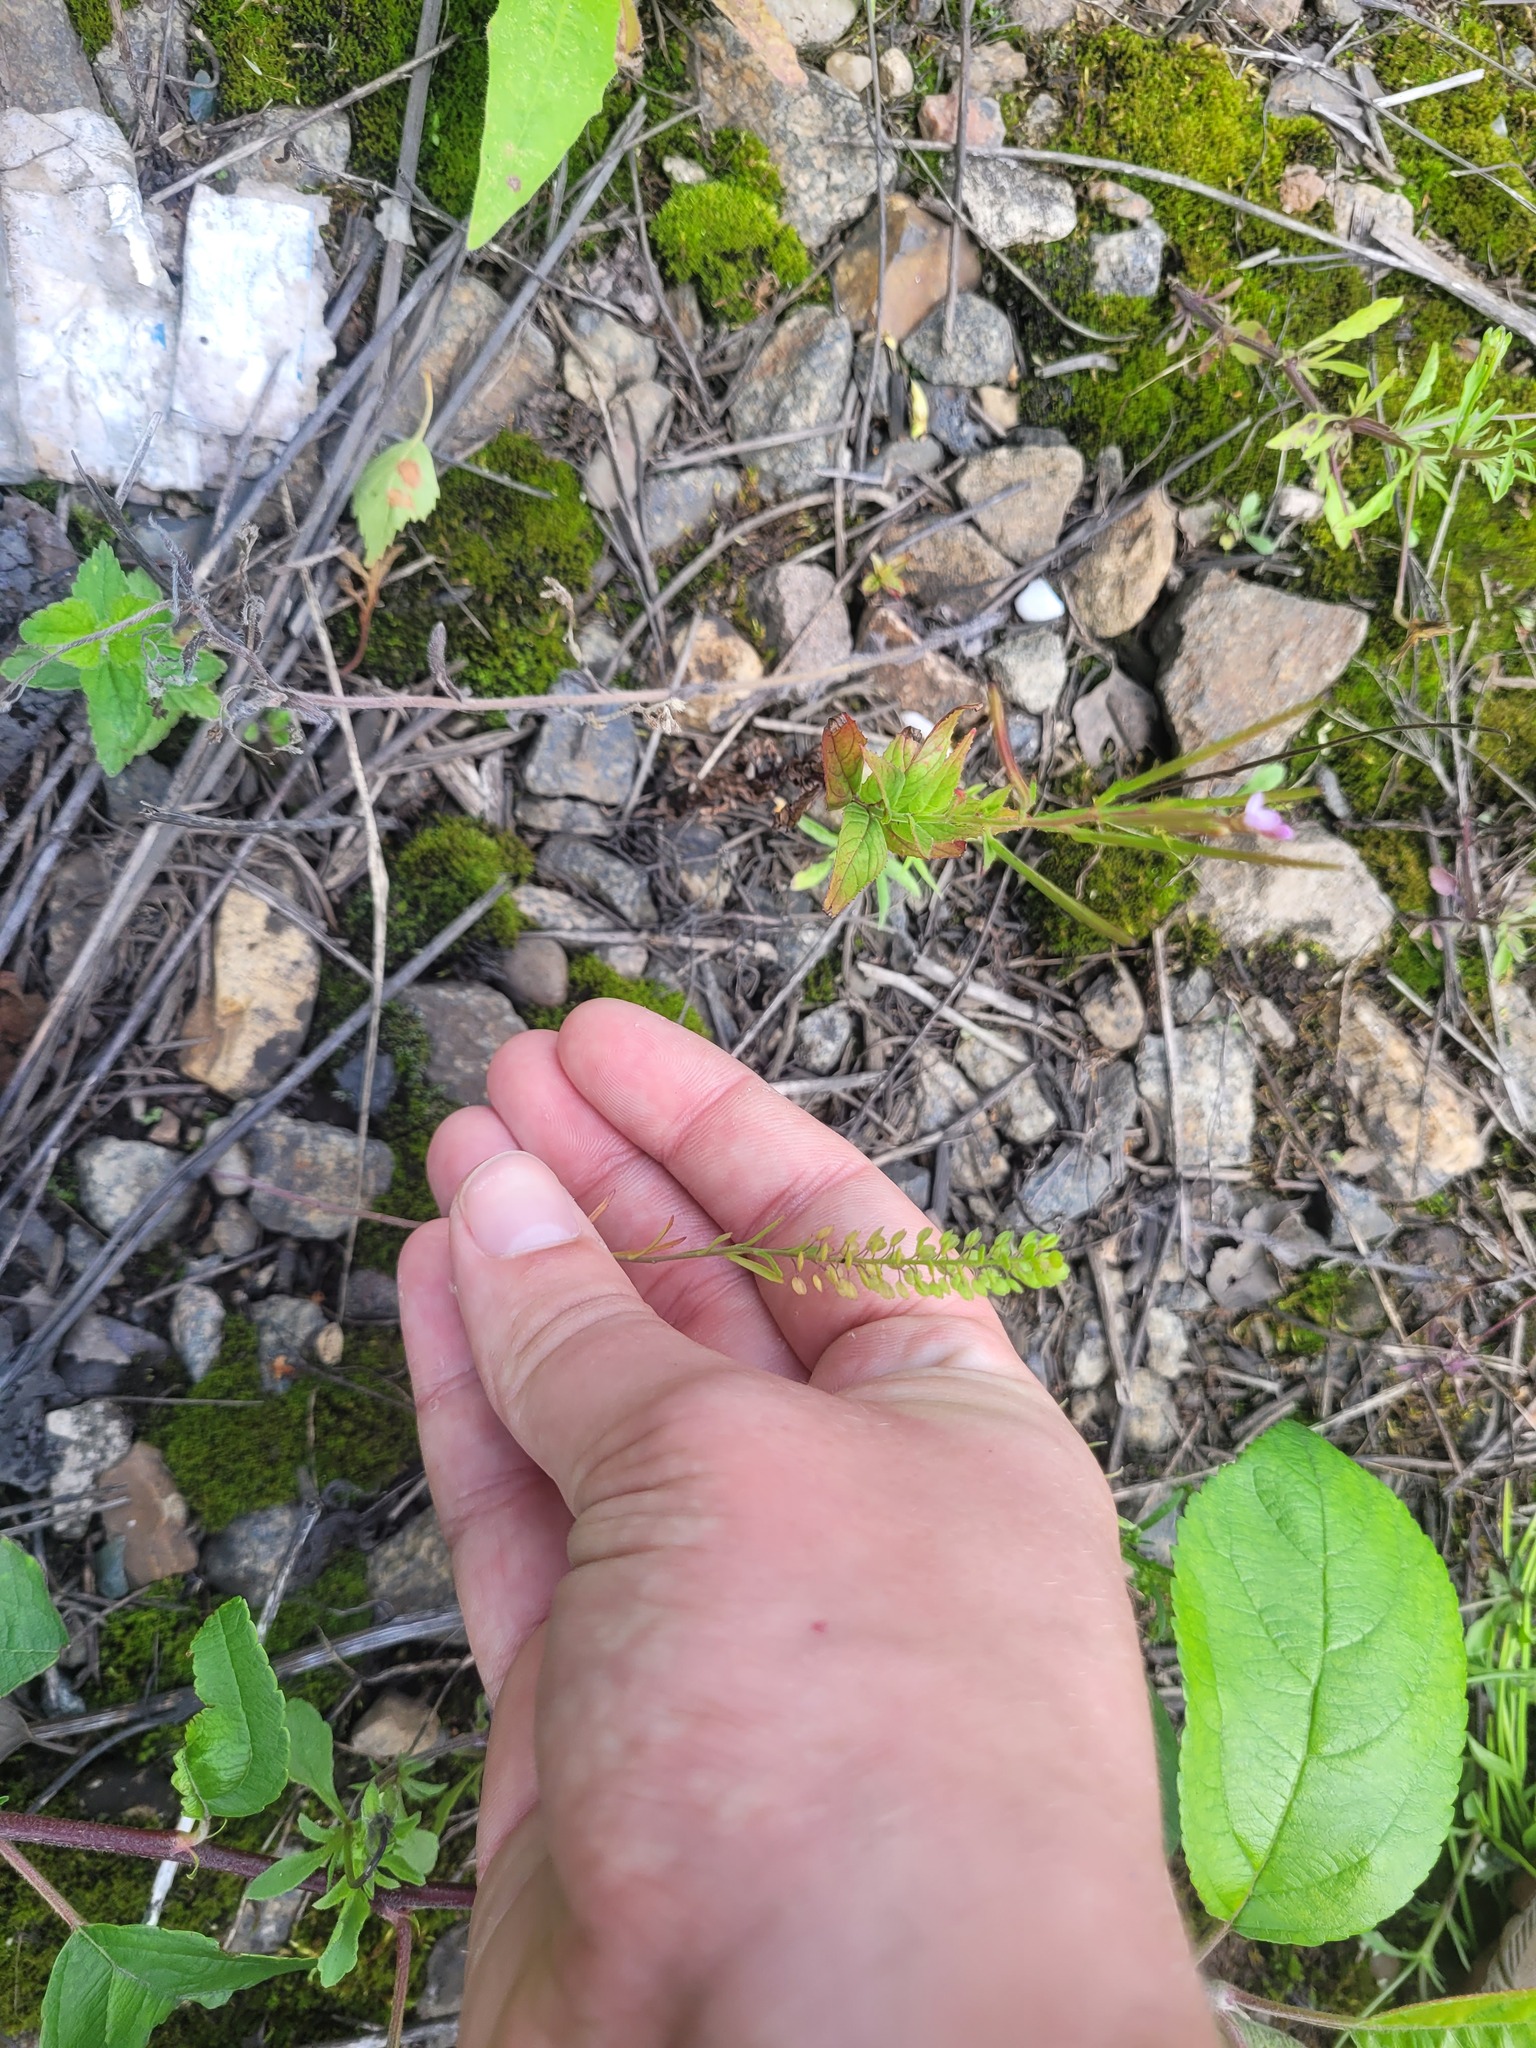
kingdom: Plantae
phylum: Tracheophyta
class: Magnoliopsida
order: Brassicales
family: Brassicaceae
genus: Lepidium
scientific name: Lepidium densiflorum
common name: Miner's pepperwort
